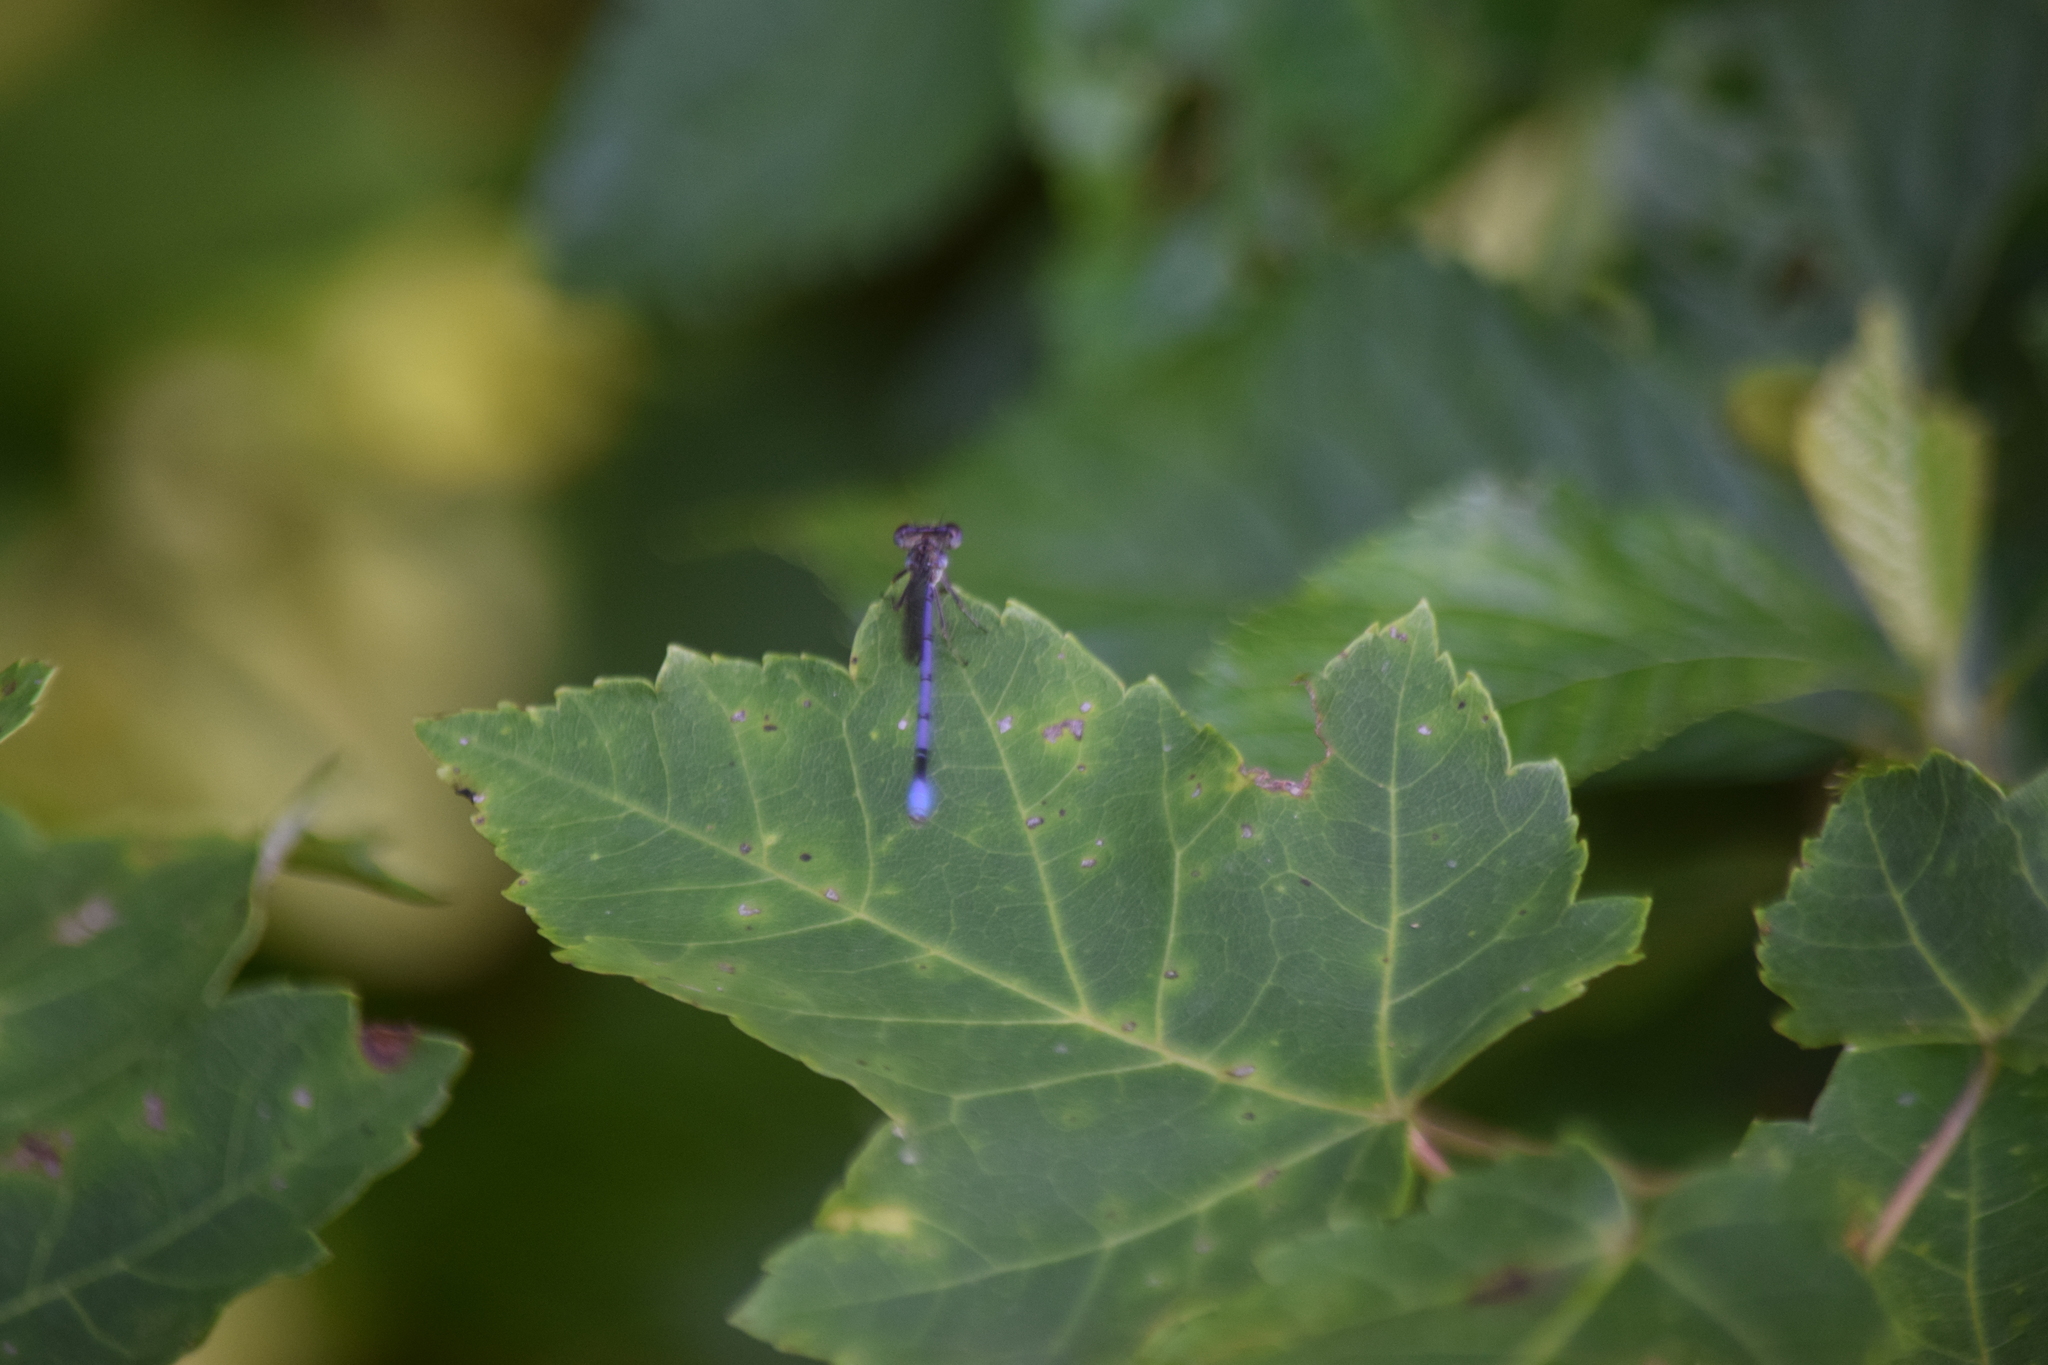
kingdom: Animalia
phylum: Arthropoda
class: Insecta
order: Odonata
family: Coenagrionidae
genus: Argia
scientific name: Argia fumipennis
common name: Variable dancer
